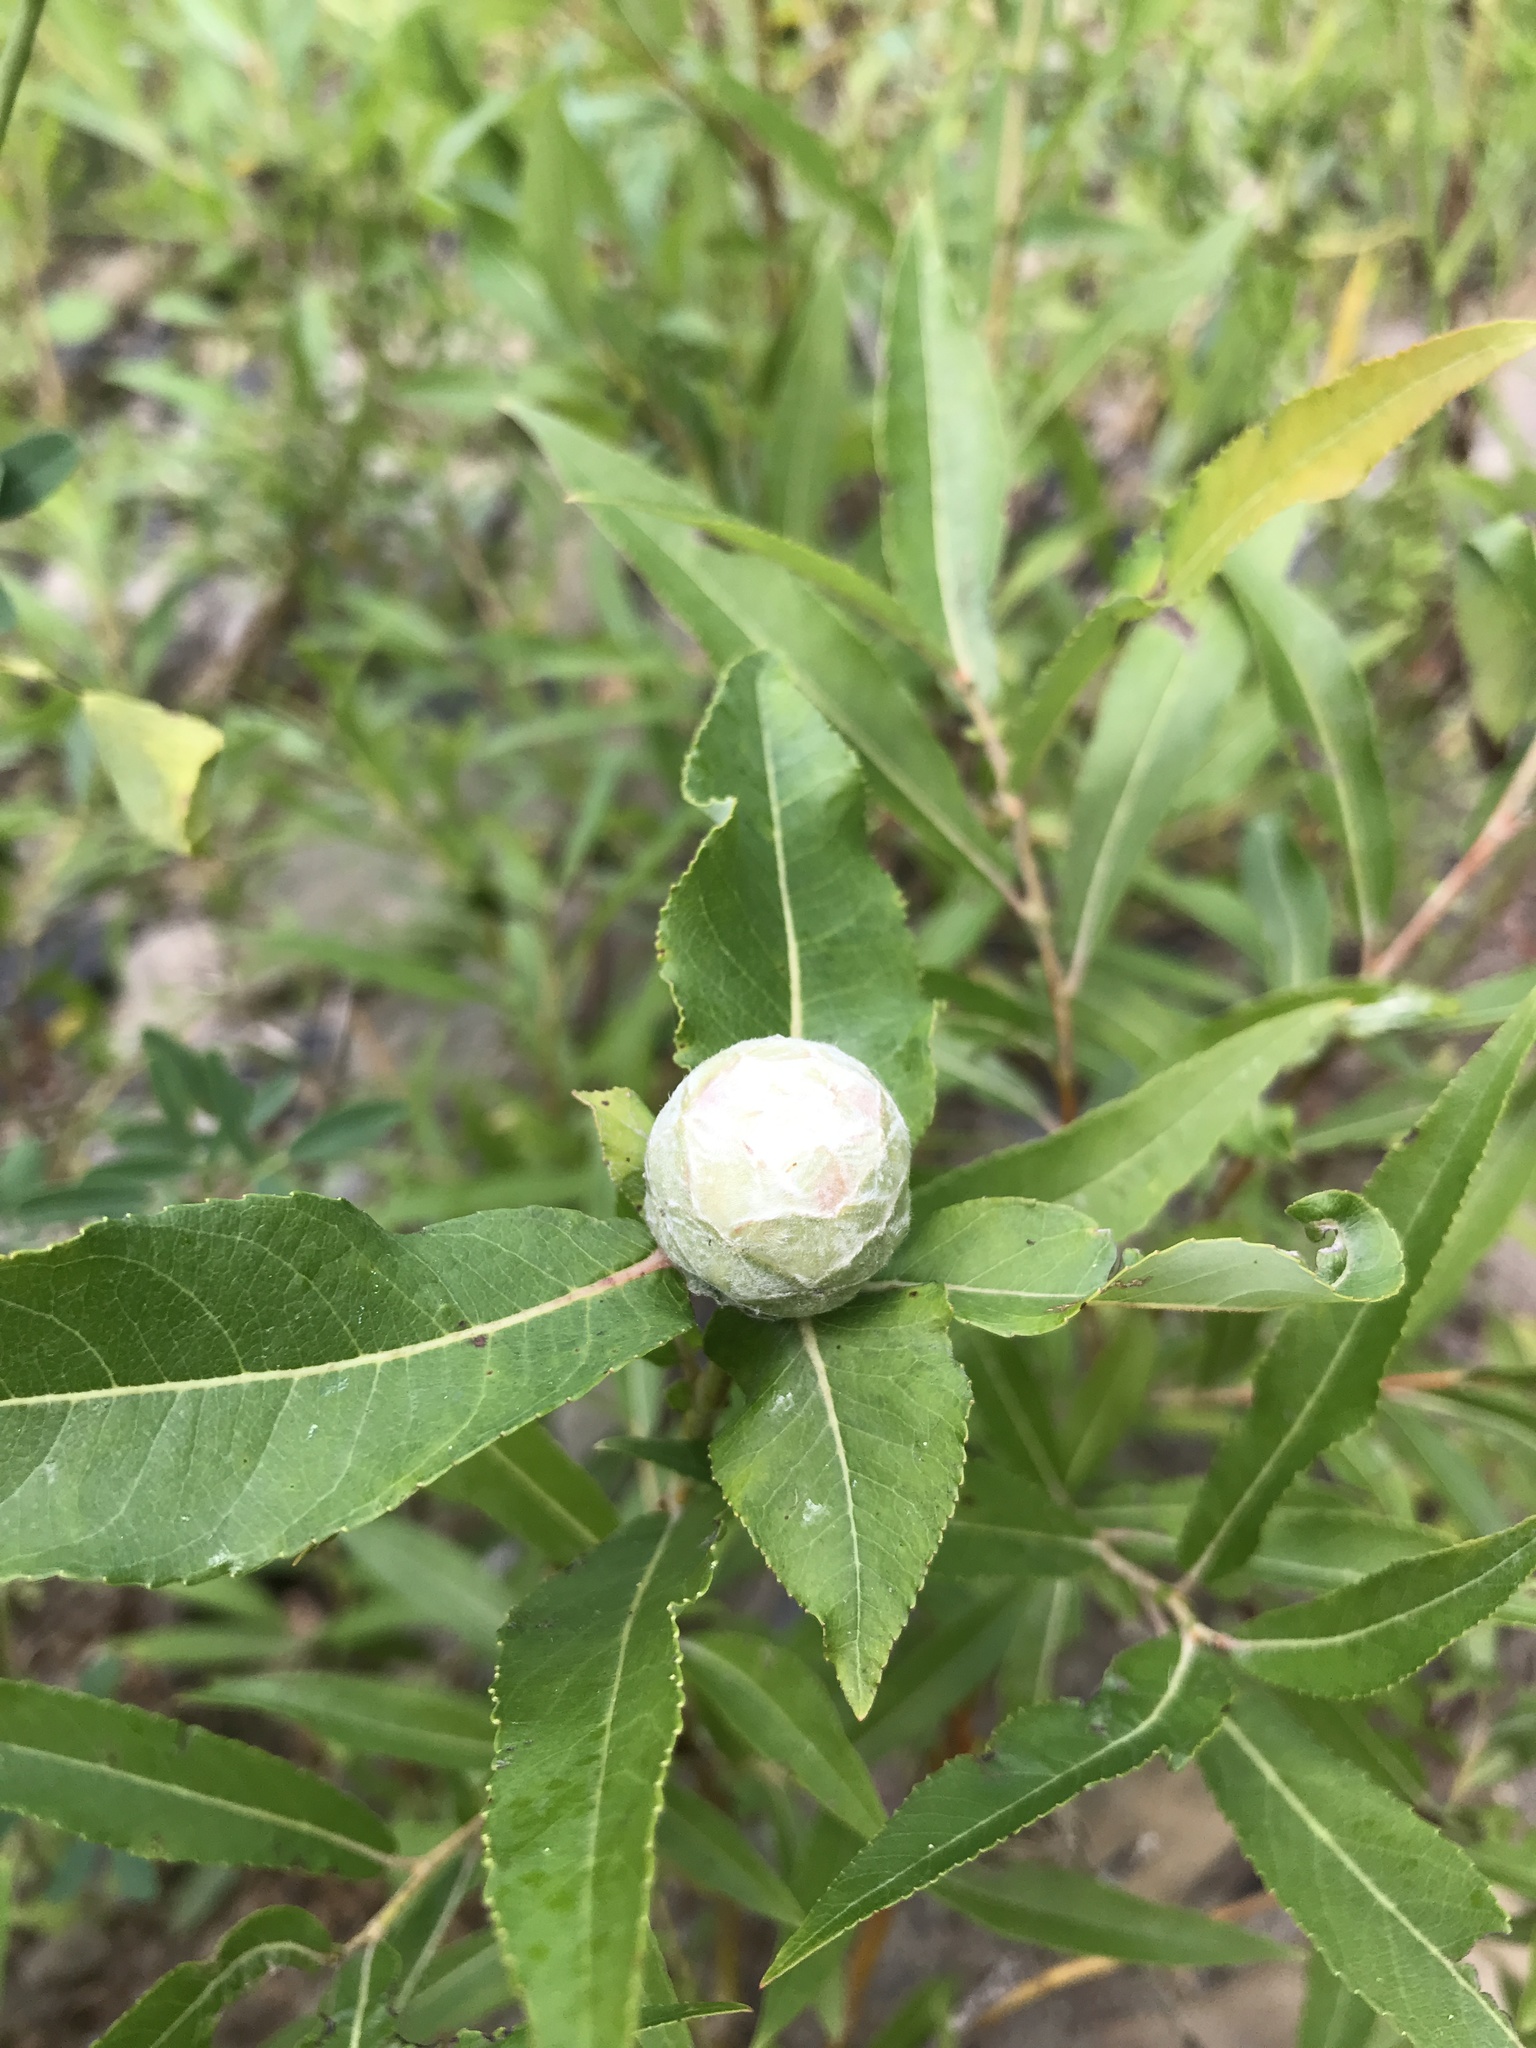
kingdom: Animalia
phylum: Arthropoda
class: Insecta
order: Diptera
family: Cecidomyiidae
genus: Rabdophaga
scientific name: Rabdophaga strobiloides
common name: Willow pinecone gall midge
